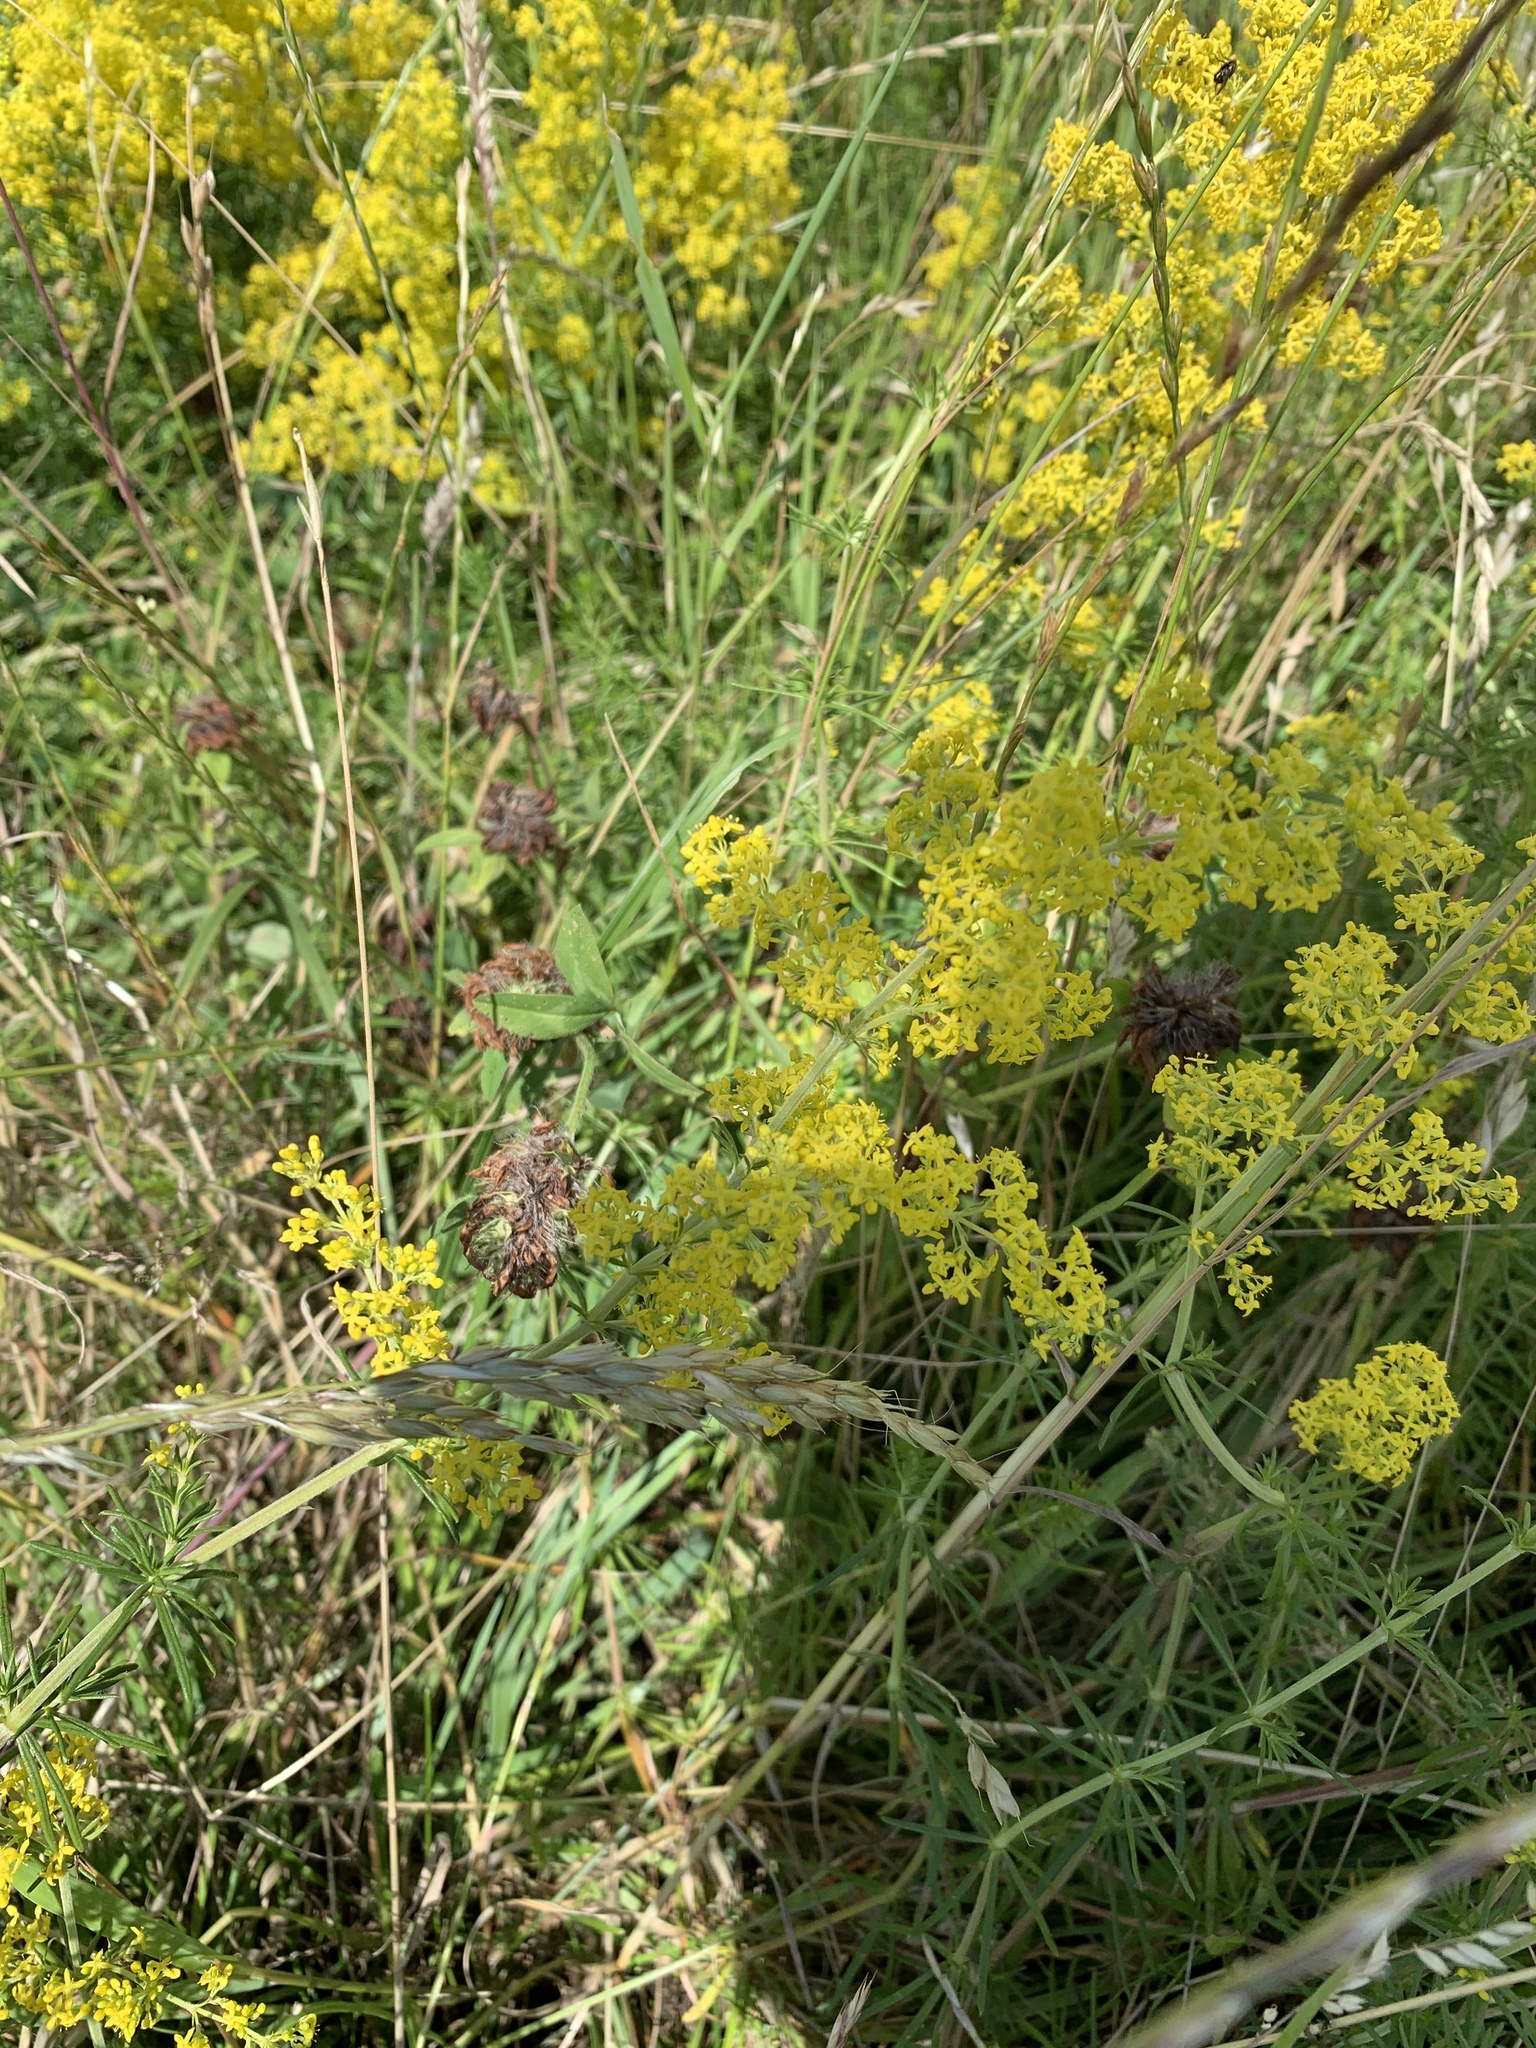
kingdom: Plantae
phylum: Tracheophyta
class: Magnoliopsida
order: Gentianales
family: Rubiaceae
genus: Galium
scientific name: Galium verum
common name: Lady's bedstraw
